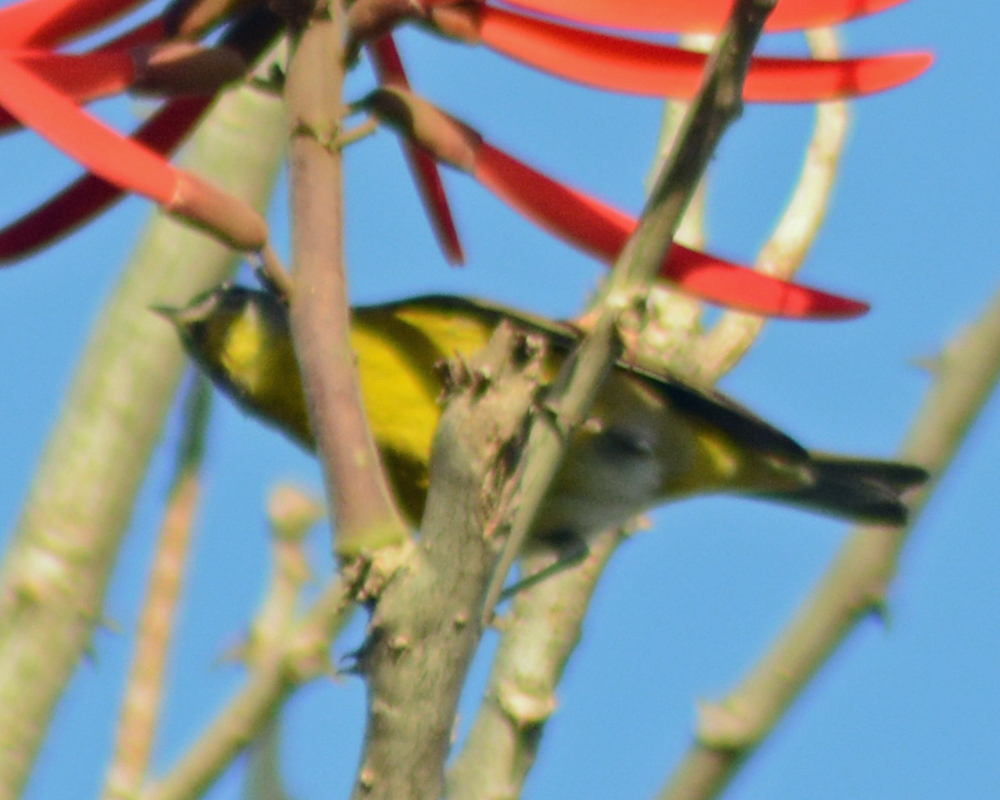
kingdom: Animalia
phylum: Chordata
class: Aves
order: Passeriformes
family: Parulidae
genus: Leiothlypis
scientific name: Leiothlypis ruficapilla
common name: Nashville warbler
